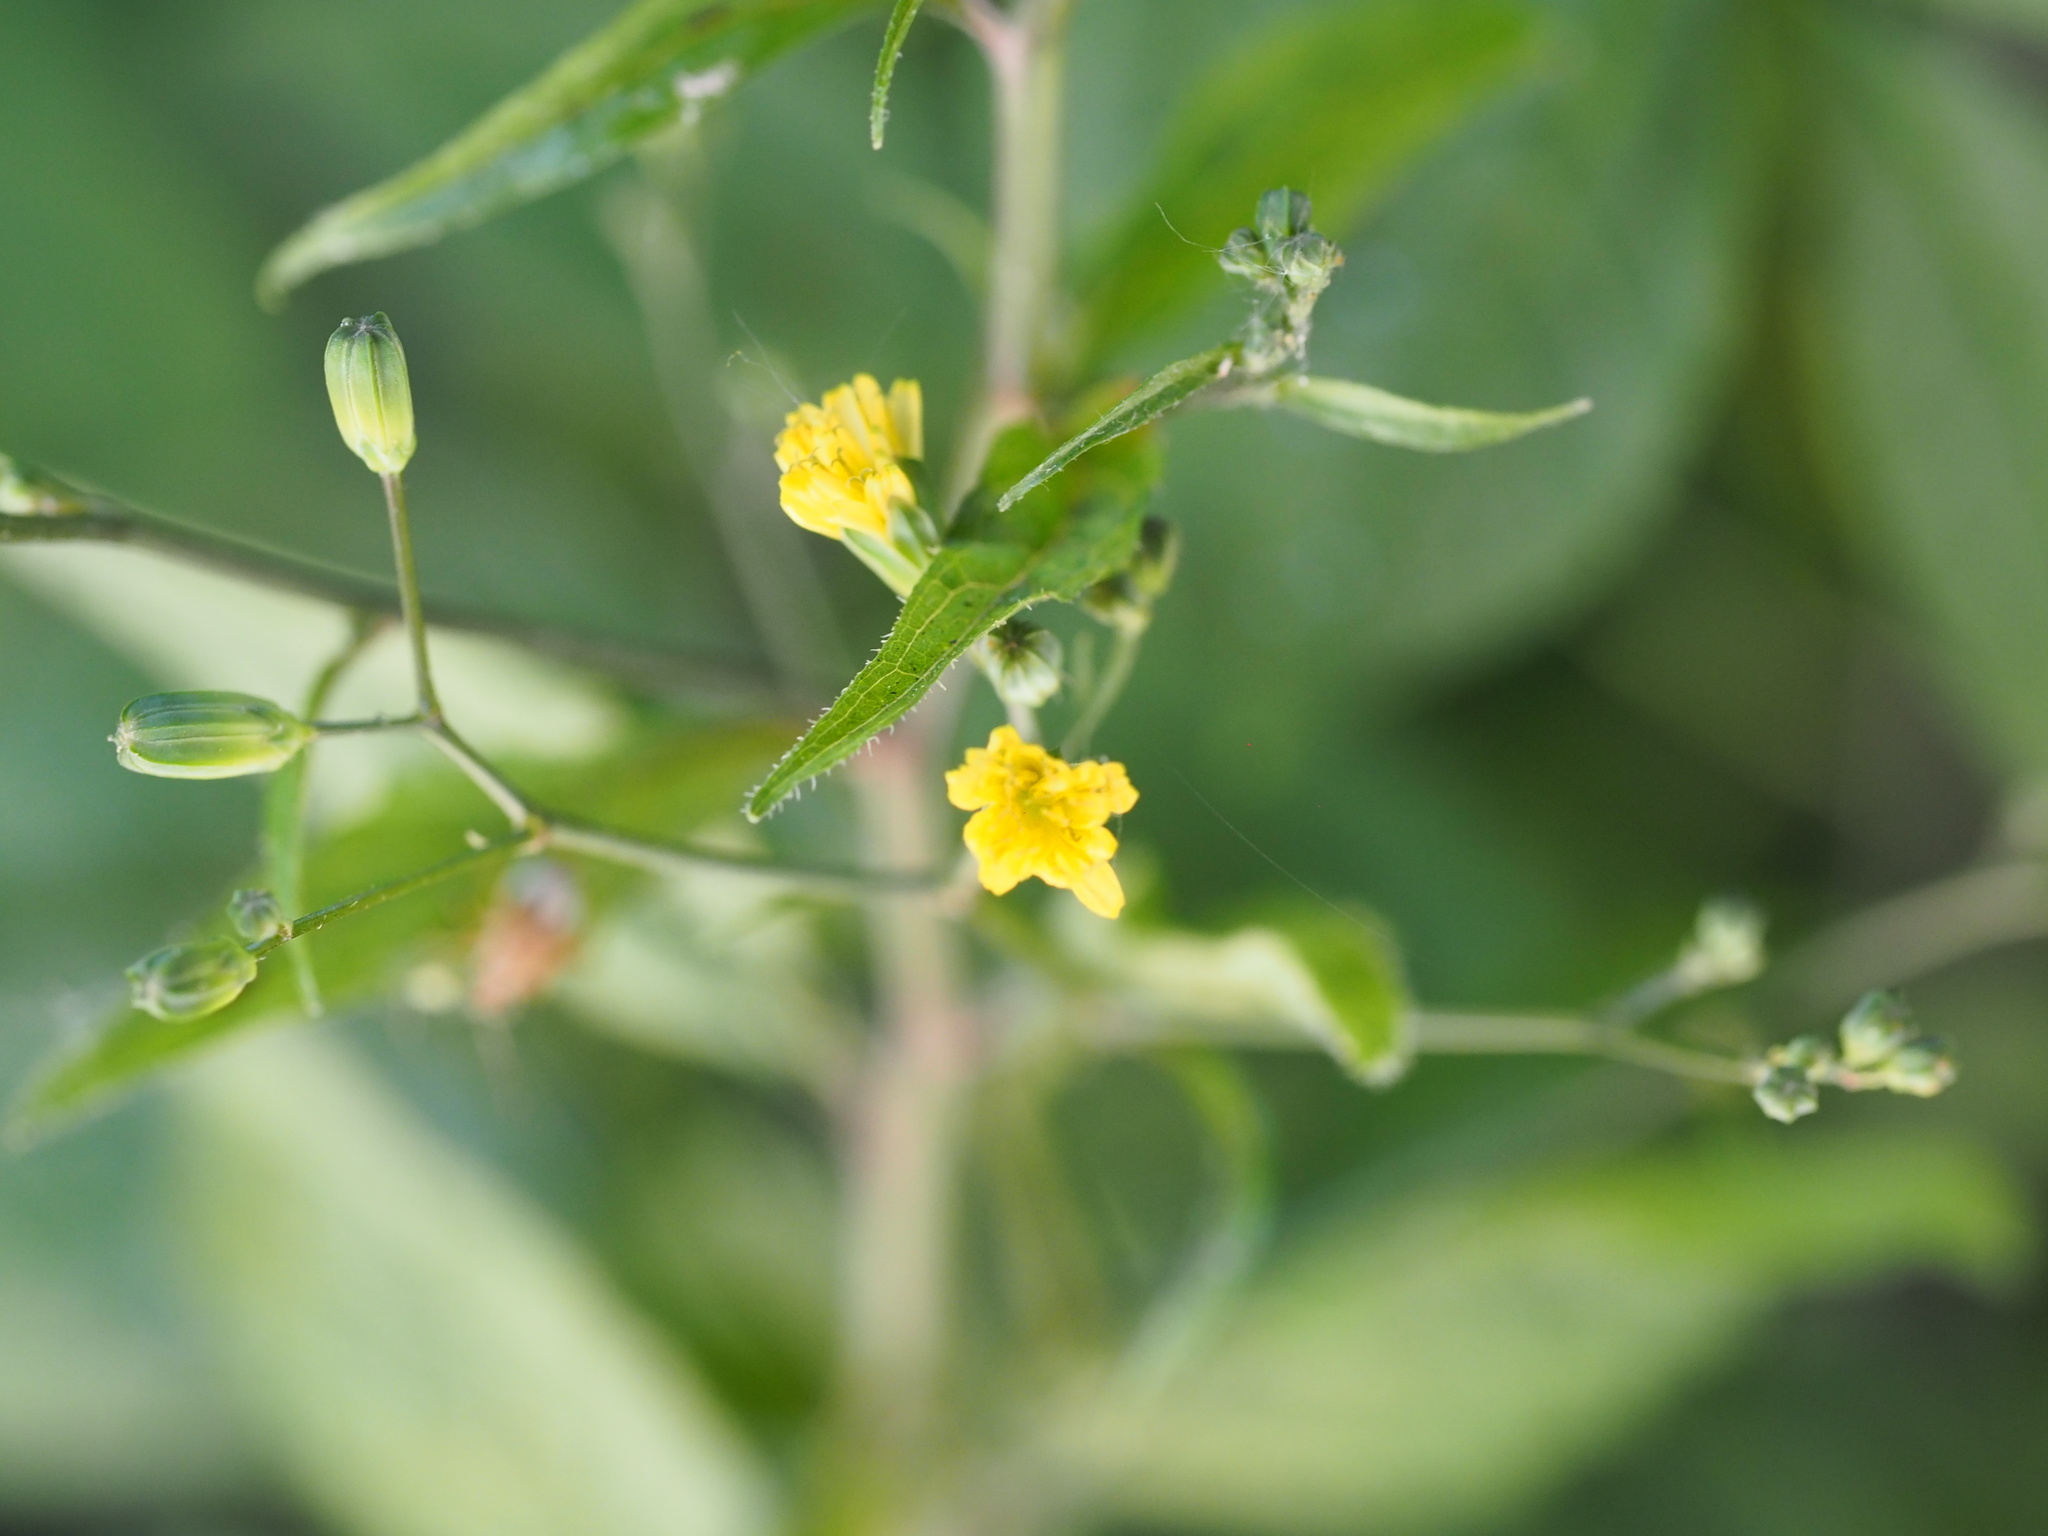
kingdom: Plantae
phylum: Tracheophyta
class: Magnoliopsida
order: Asterales
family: Asteraceae
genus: Lapsana
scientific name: Lapsana communis
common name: Nipplewort
